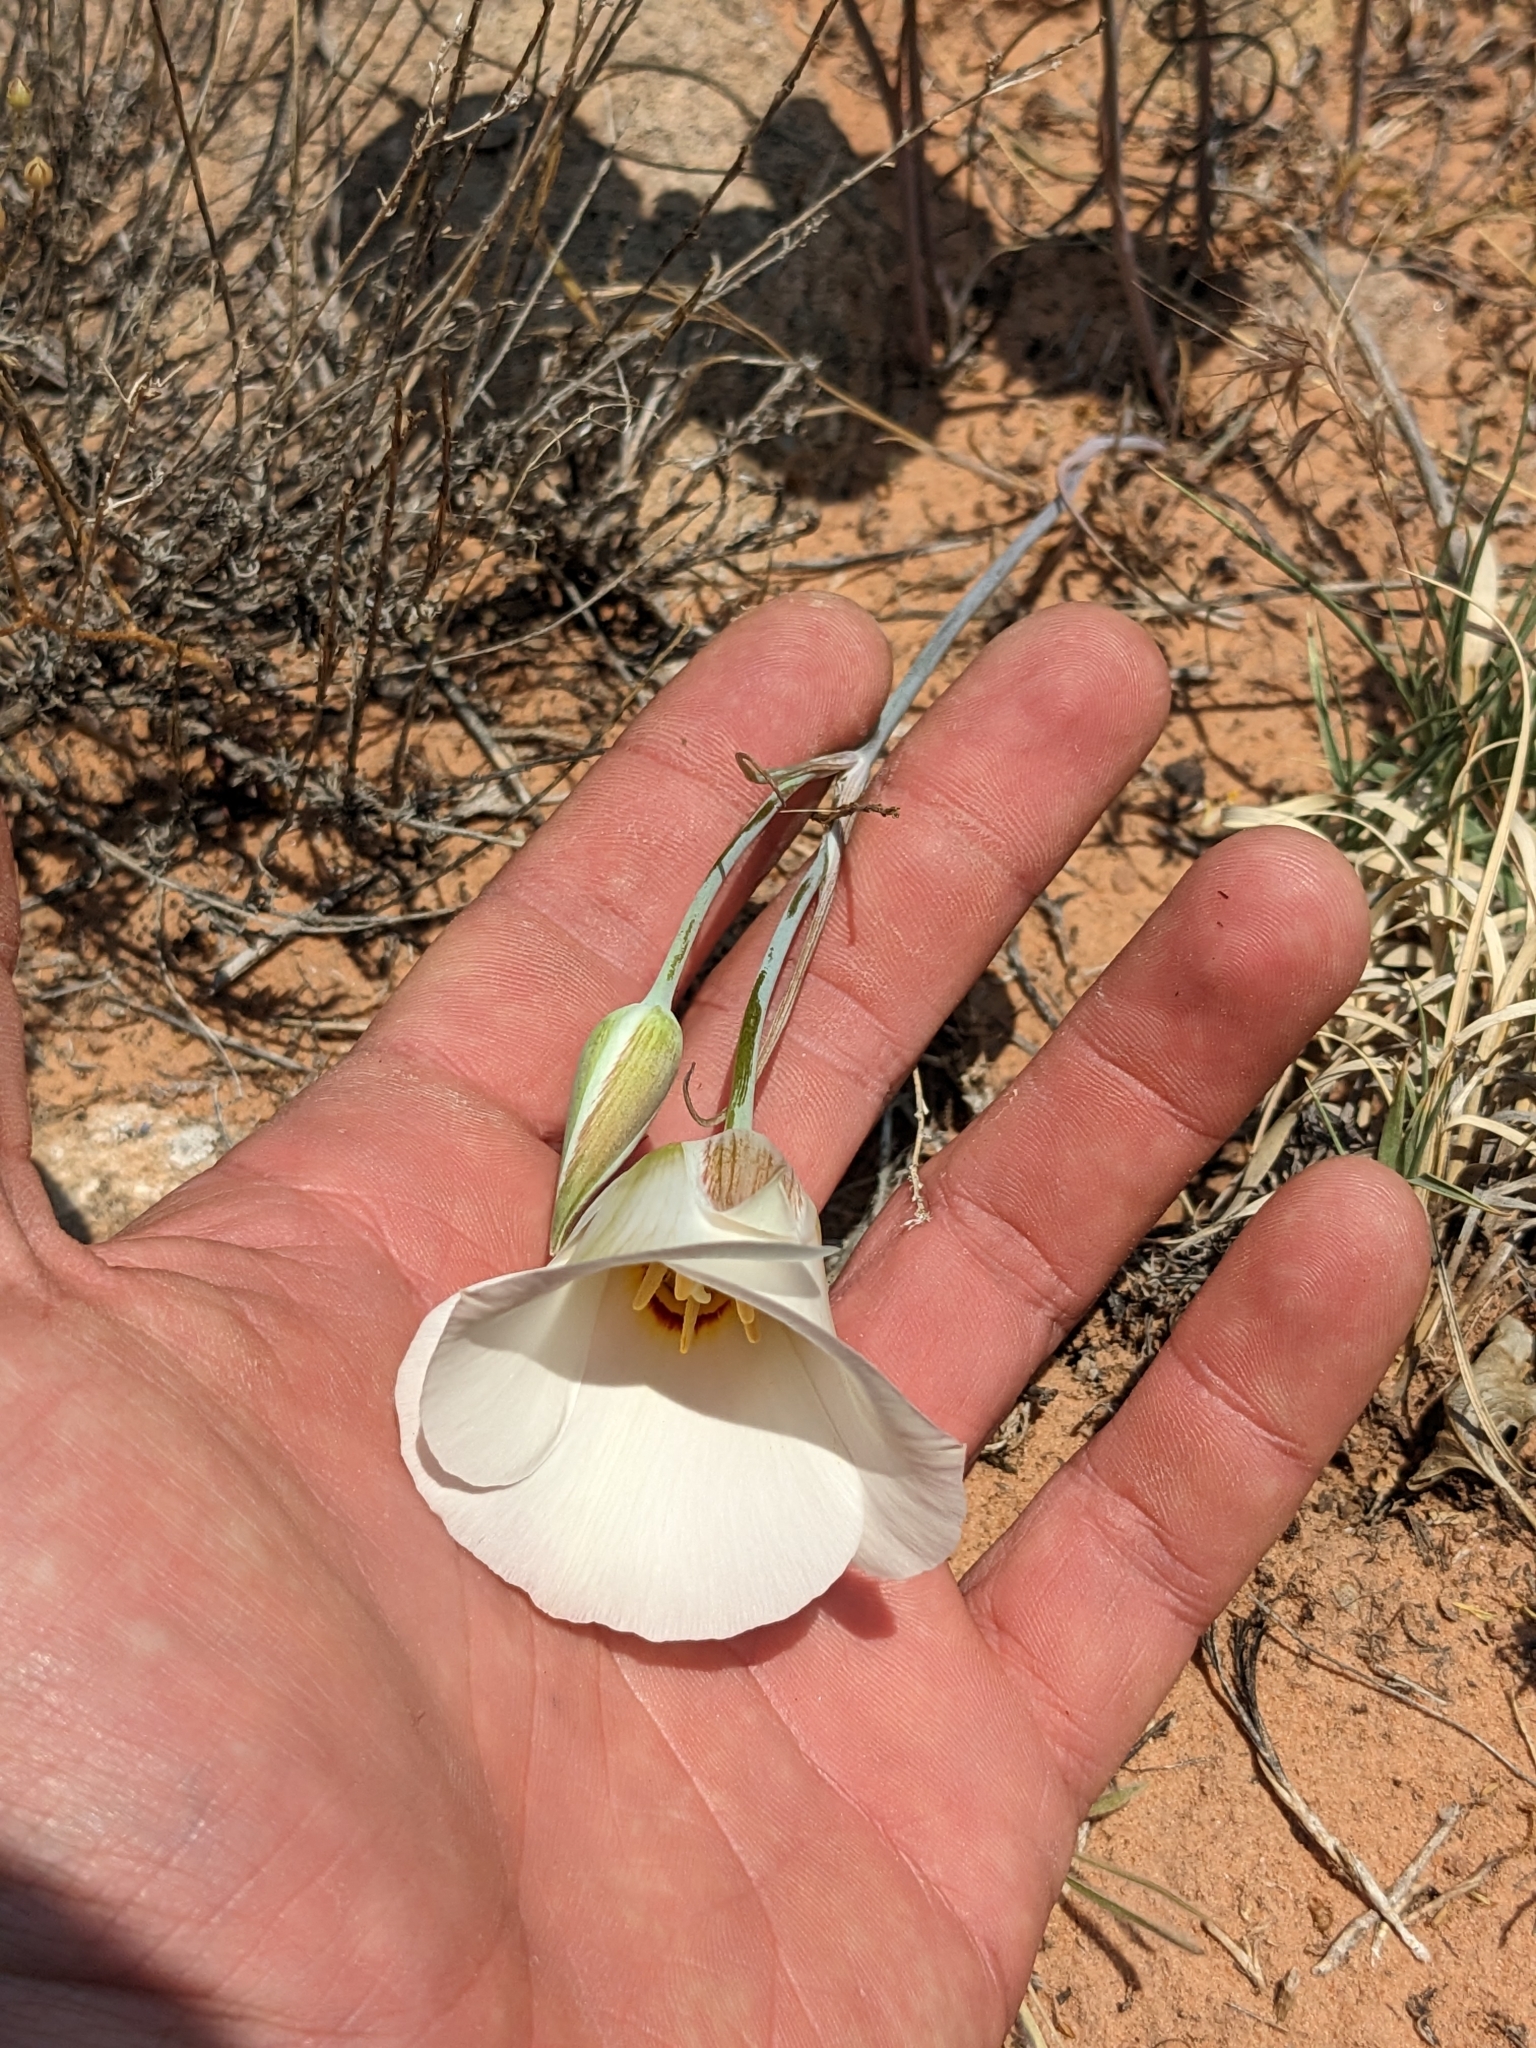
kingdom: Plantae
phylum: Tracheophyta
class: Liliopsida
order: Liliales
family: Liliaceae
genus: Calochortus
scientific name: Calochortus nuttallii
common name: Sego-lily
